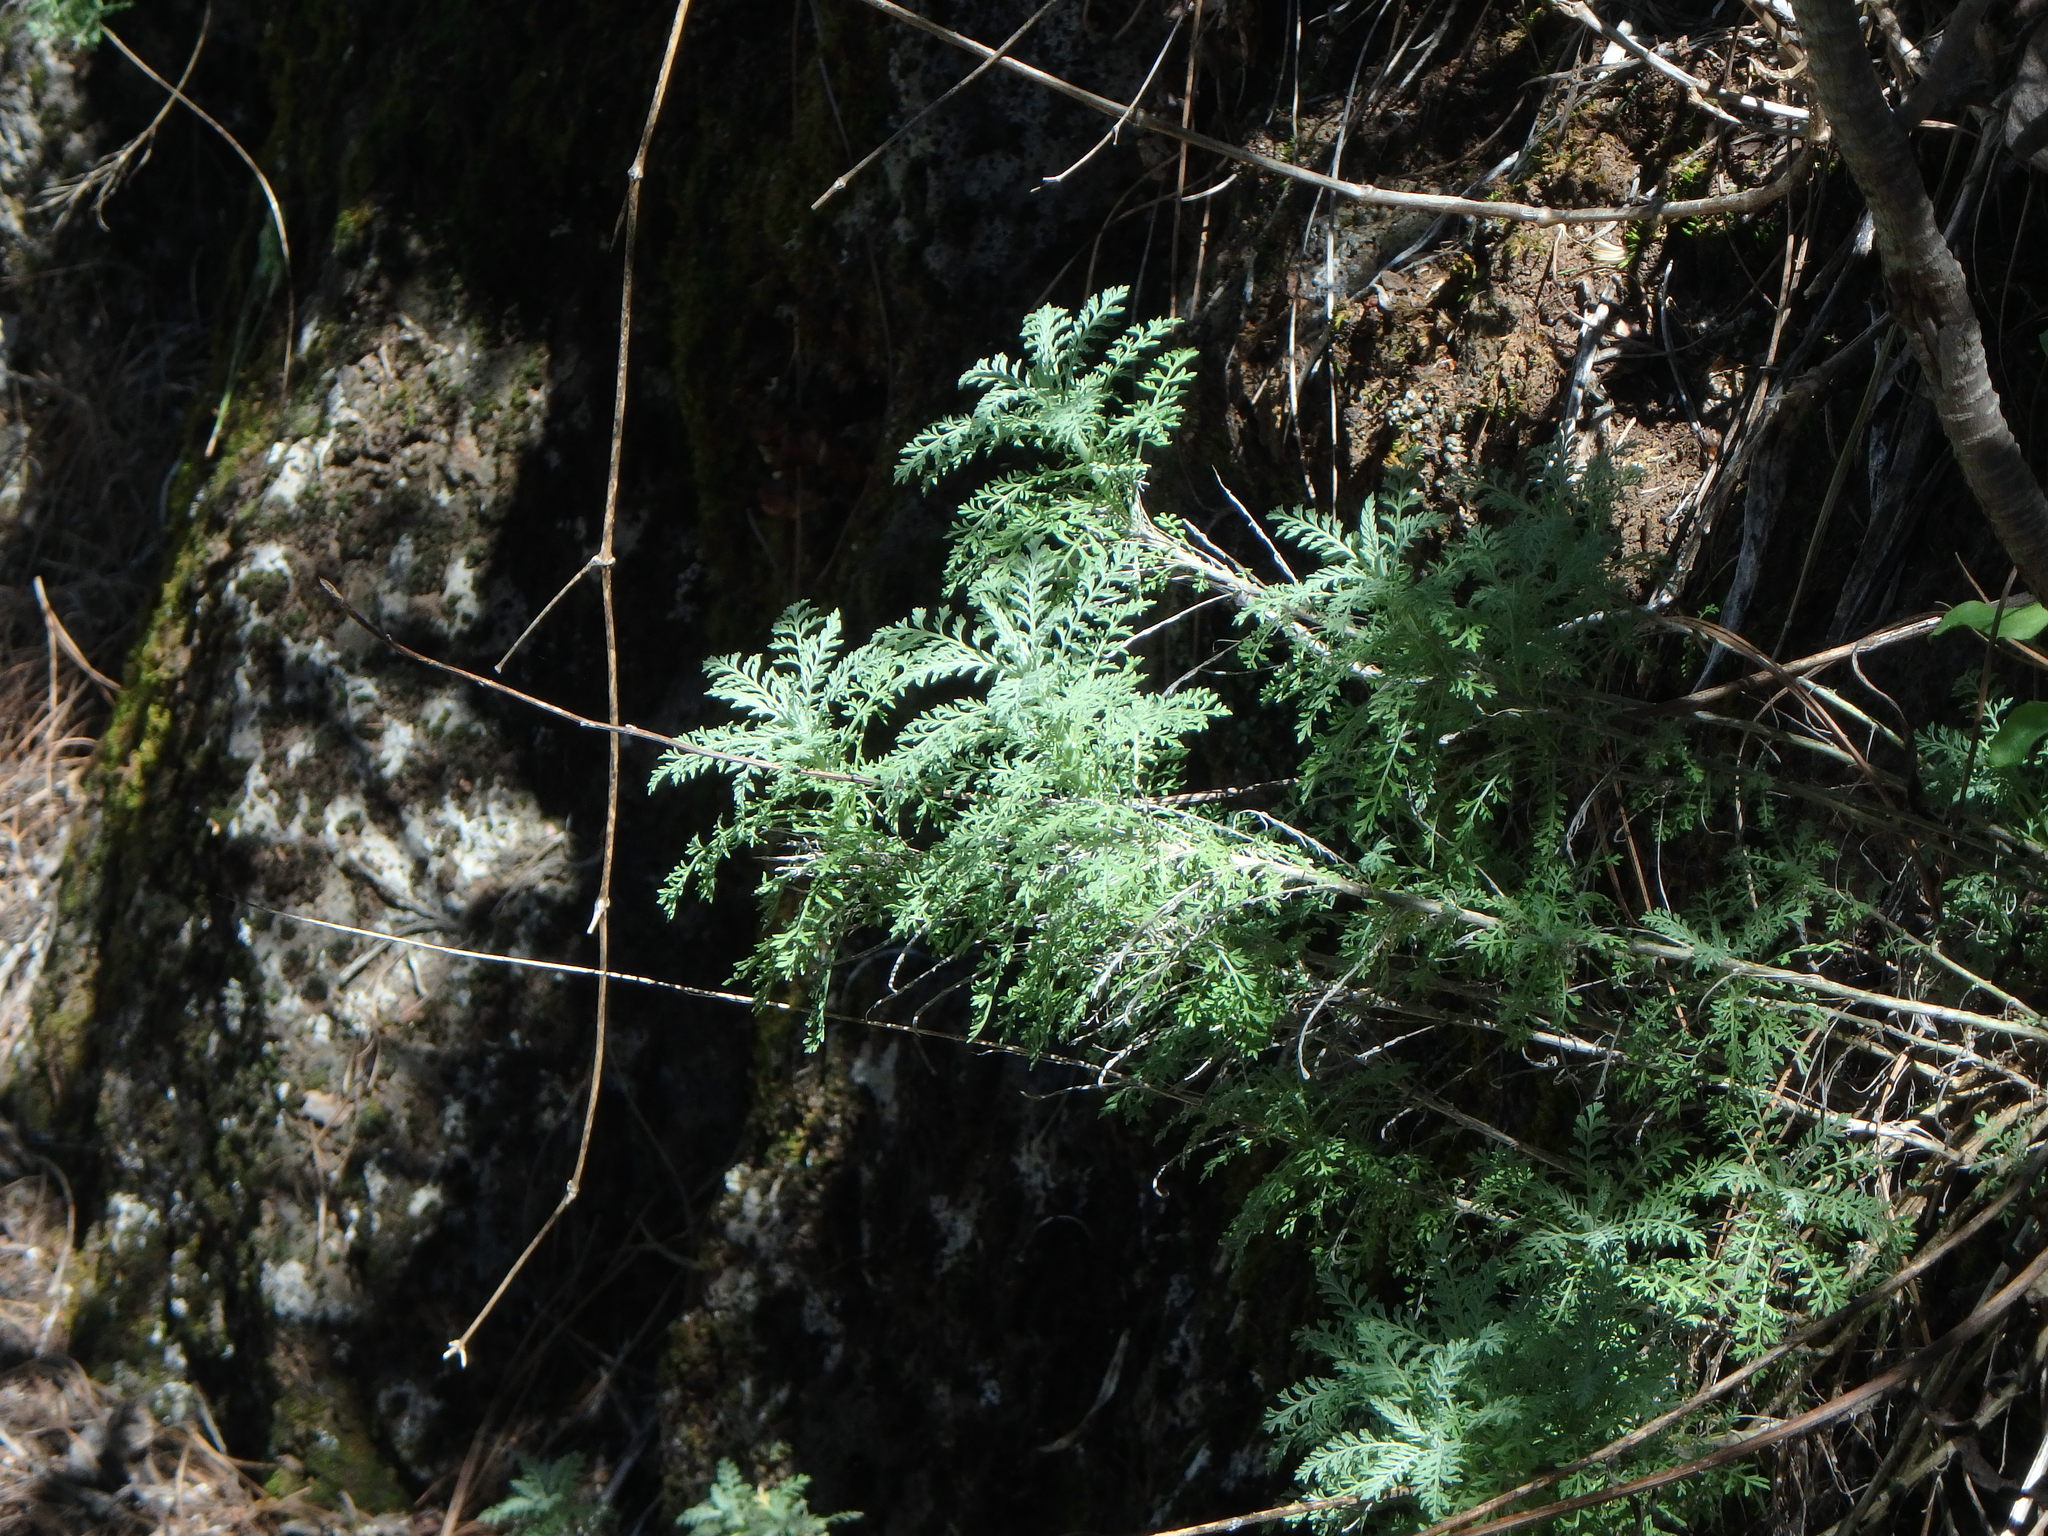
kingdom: Plantae
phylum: Tracheophyta
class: Magnoliopsida
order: Lamiales
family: Lamiaceae
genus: Lavandula
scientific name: Lavandula canariensis
